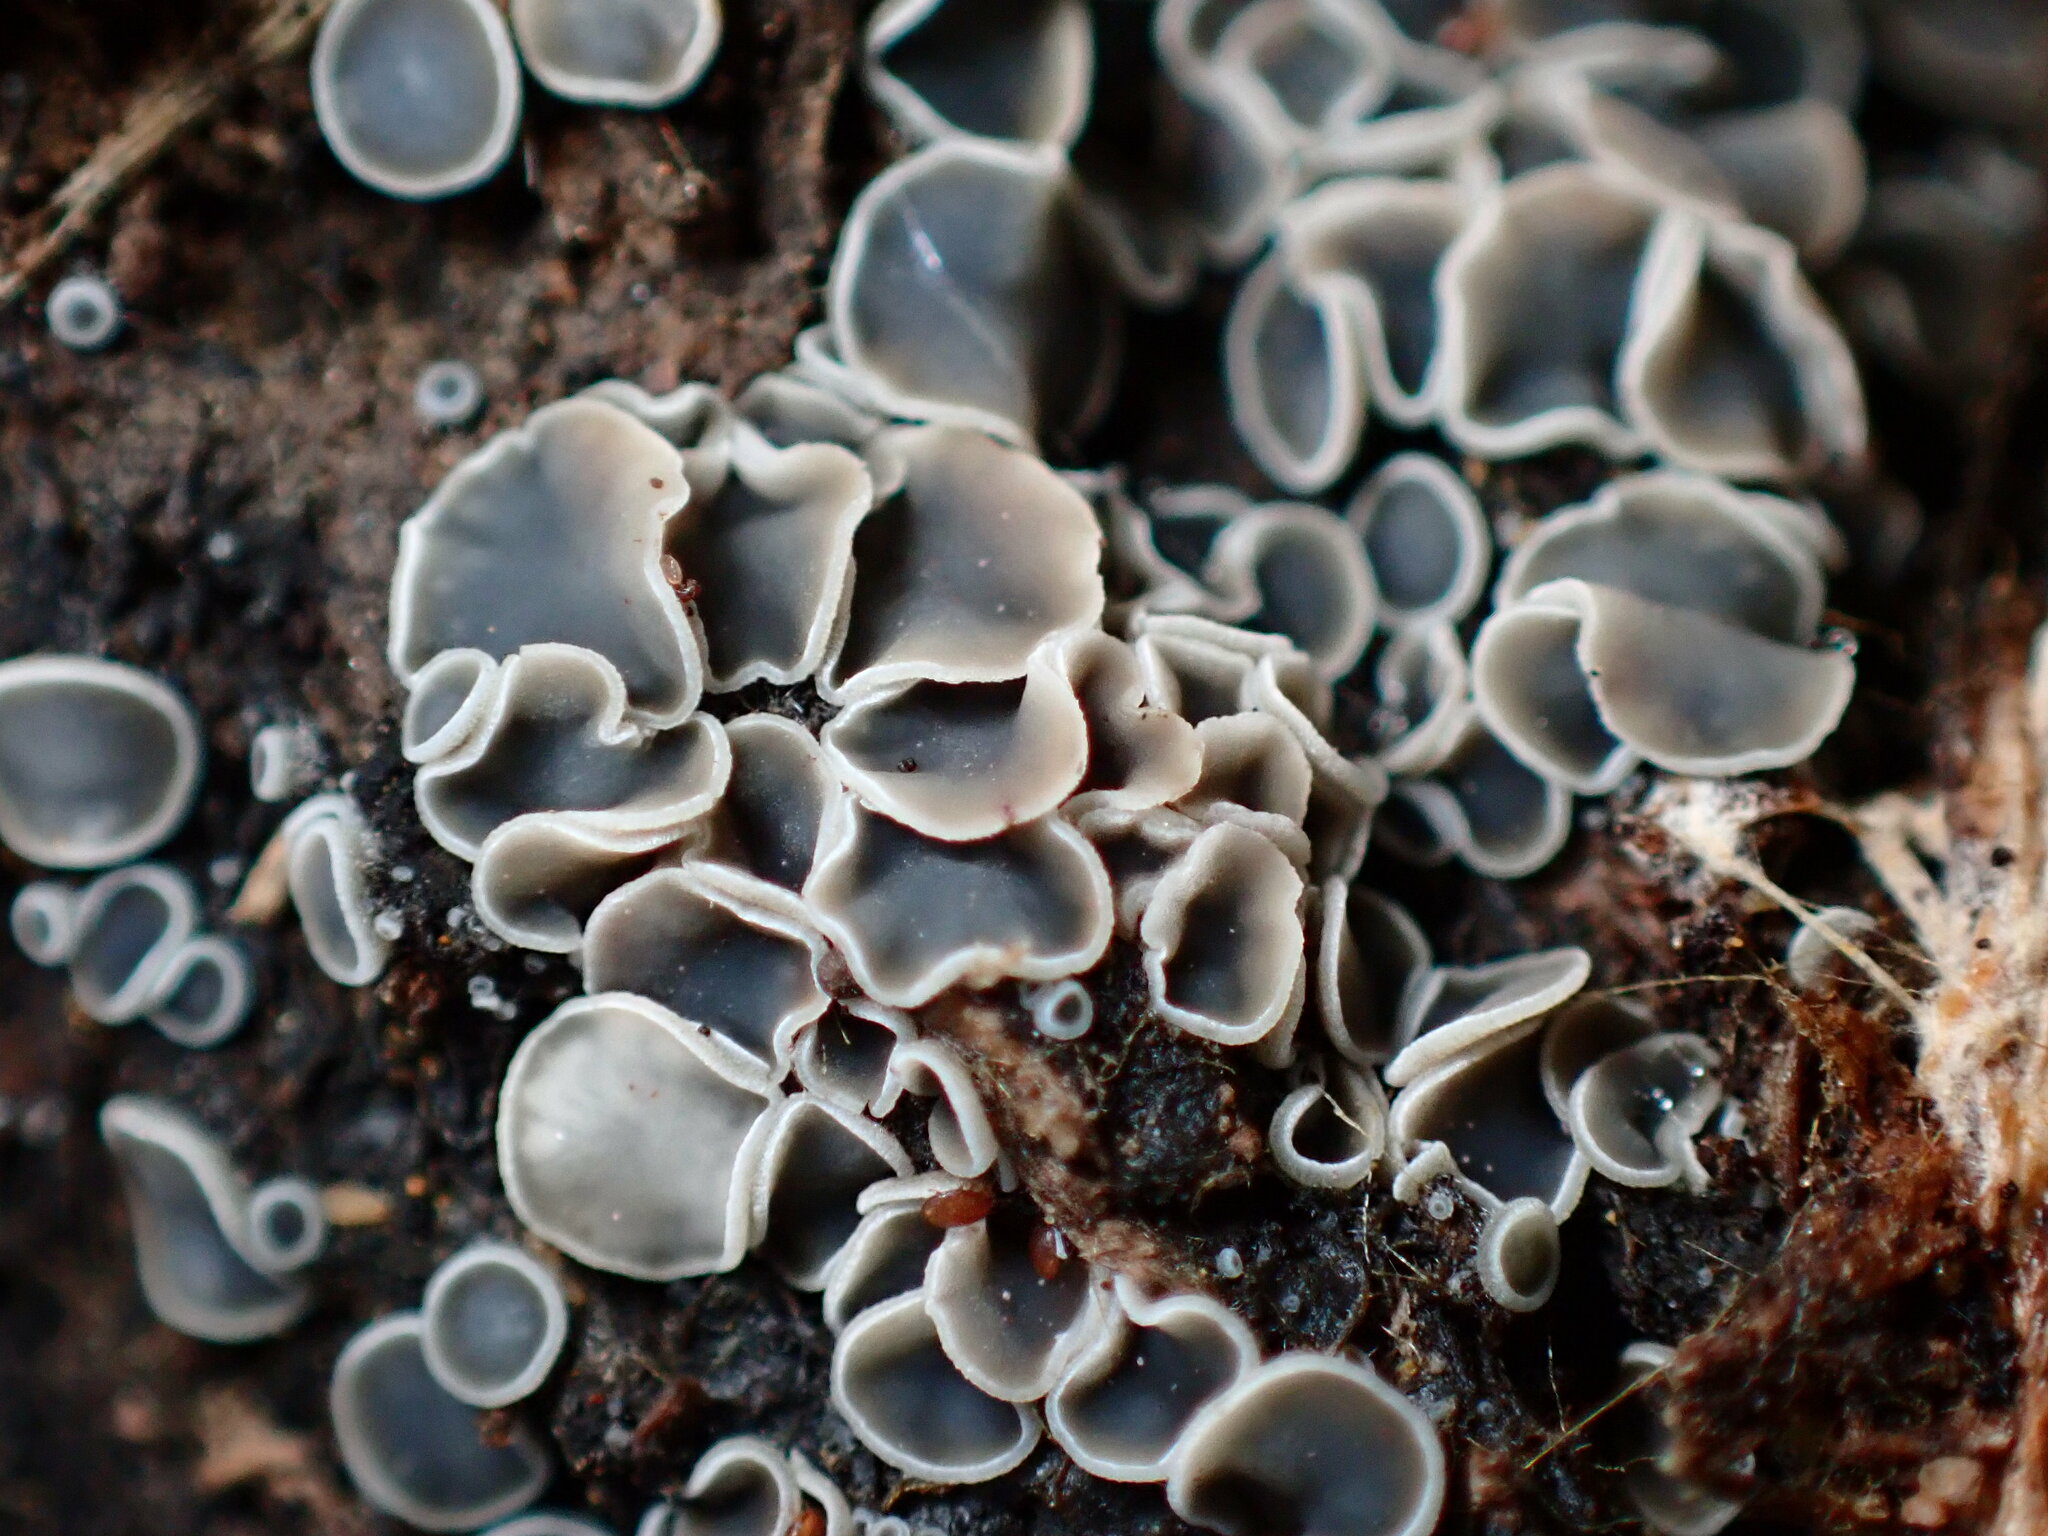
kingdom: Fungi
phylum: Ascomycota
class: Leotiomycetes
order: Helotiales
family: Mollisiaceae
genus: Mollisia
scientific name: Mollisia cinerea
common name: Common grey disco
